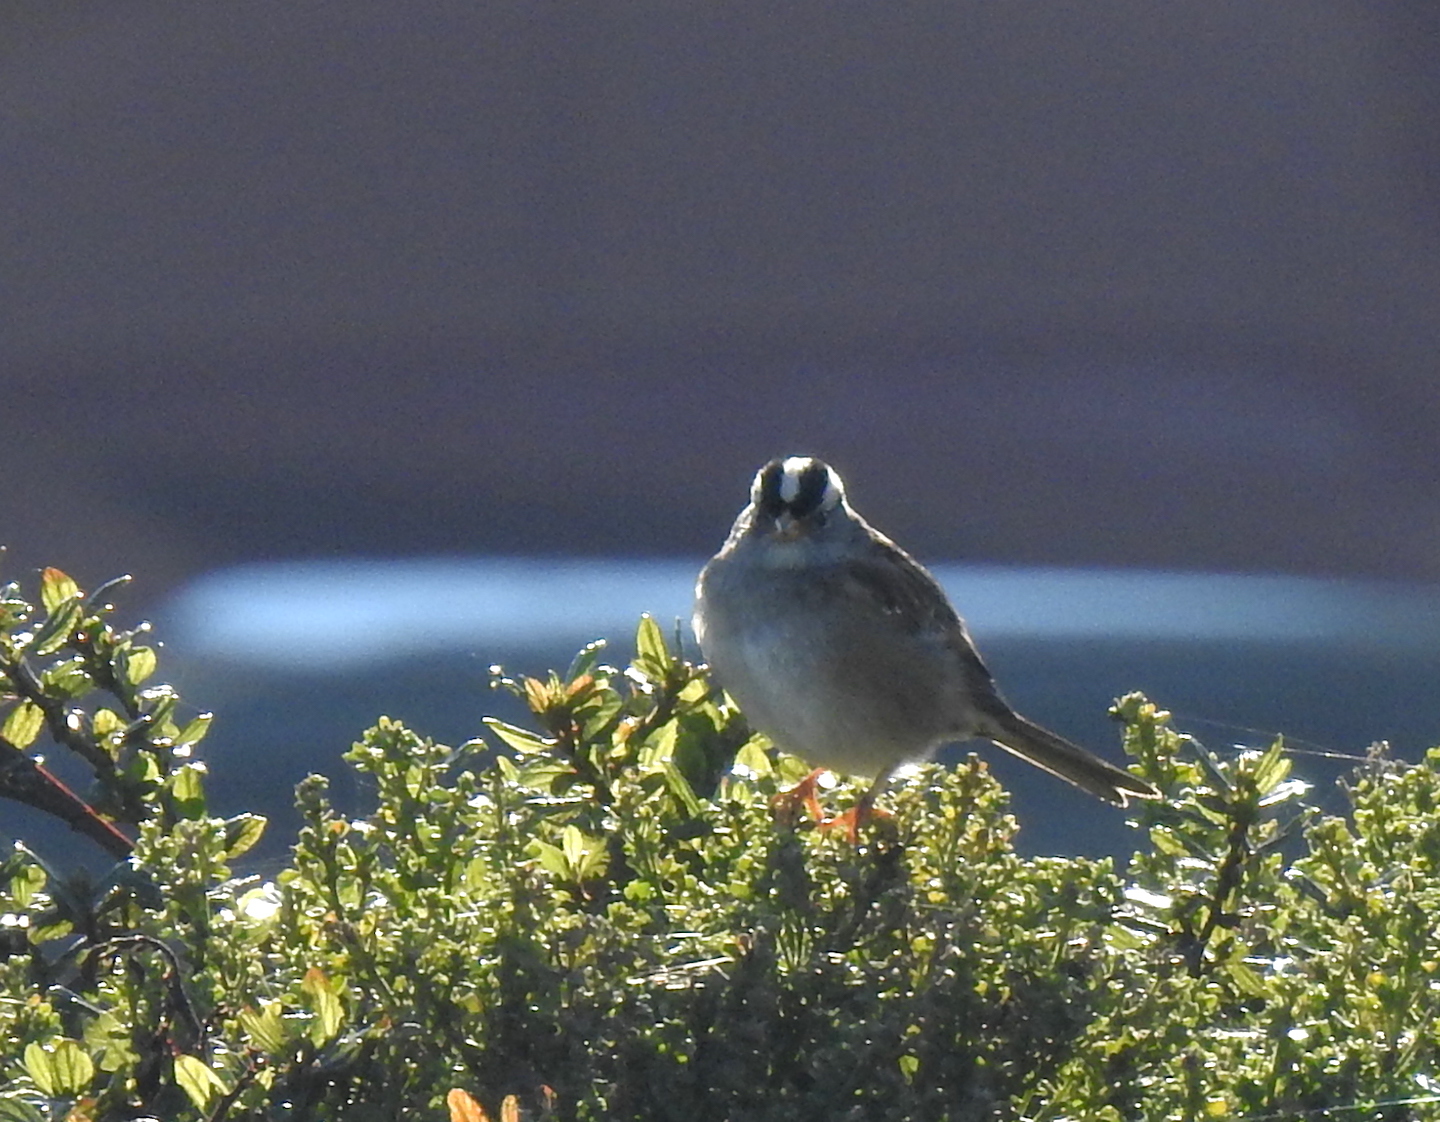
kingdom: Animalia
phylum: Chordata
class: Aves
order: Passeriformes
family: Passerellidae
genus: Zonotrichia
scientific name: Zonotrichia leucophrys
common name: White-crowned sparrow
